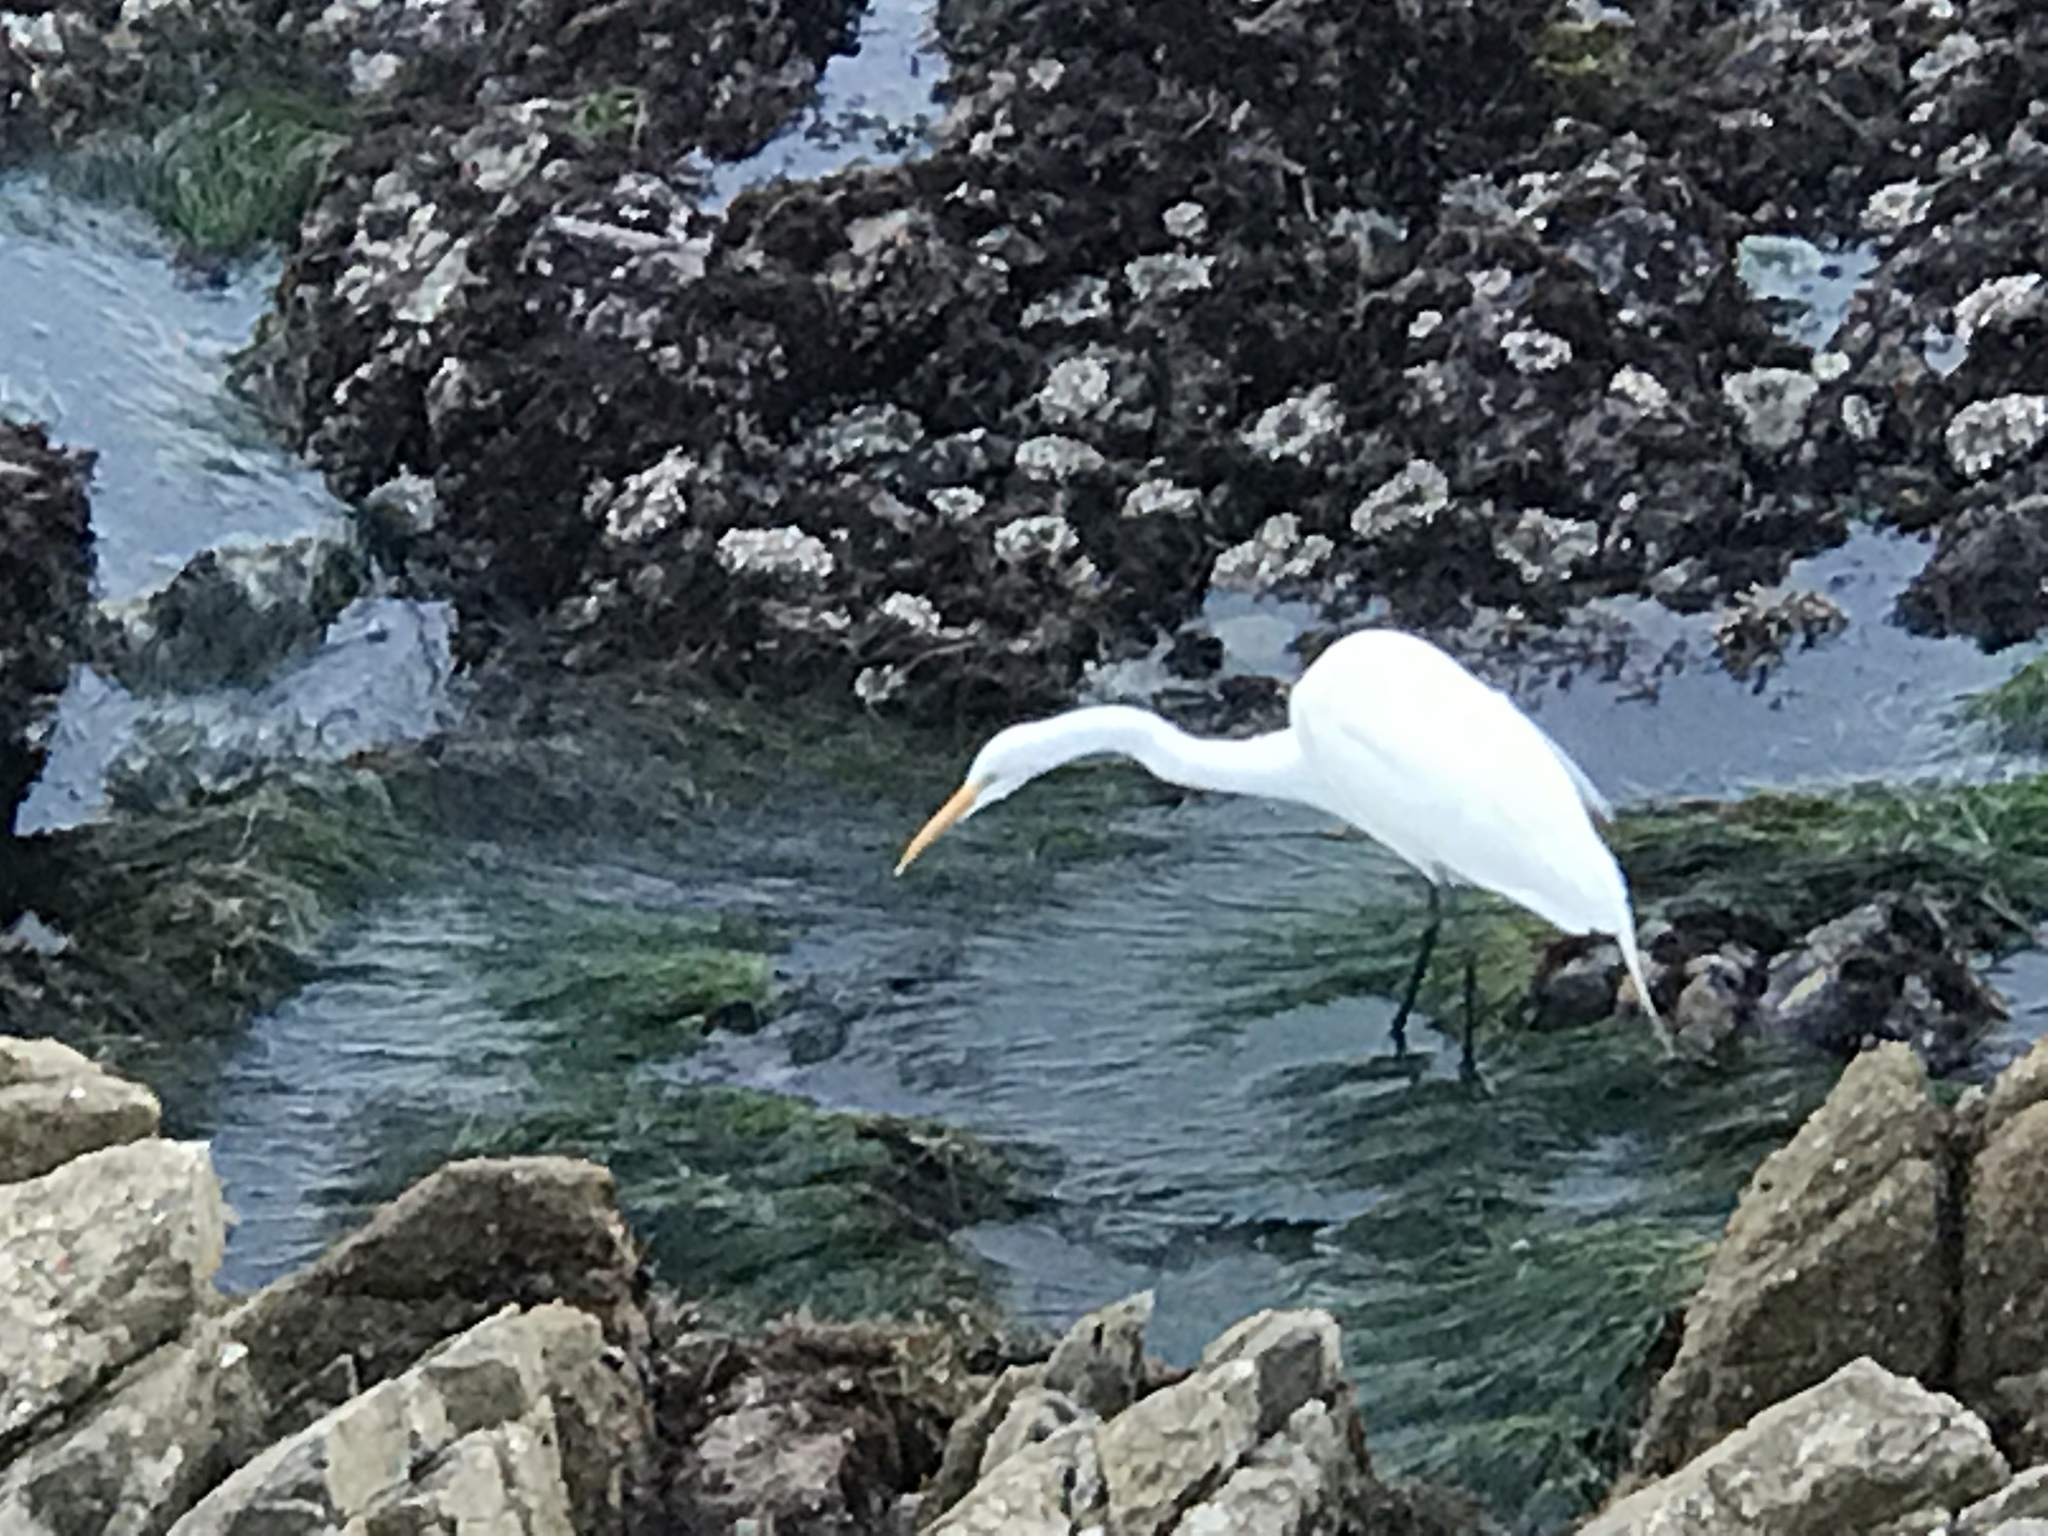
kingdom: Animalia
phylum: Chordata
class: Aves
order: Pelecaniformes
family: Ardeidae
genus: Ardea
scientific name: Ardea alba
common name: Great egret
